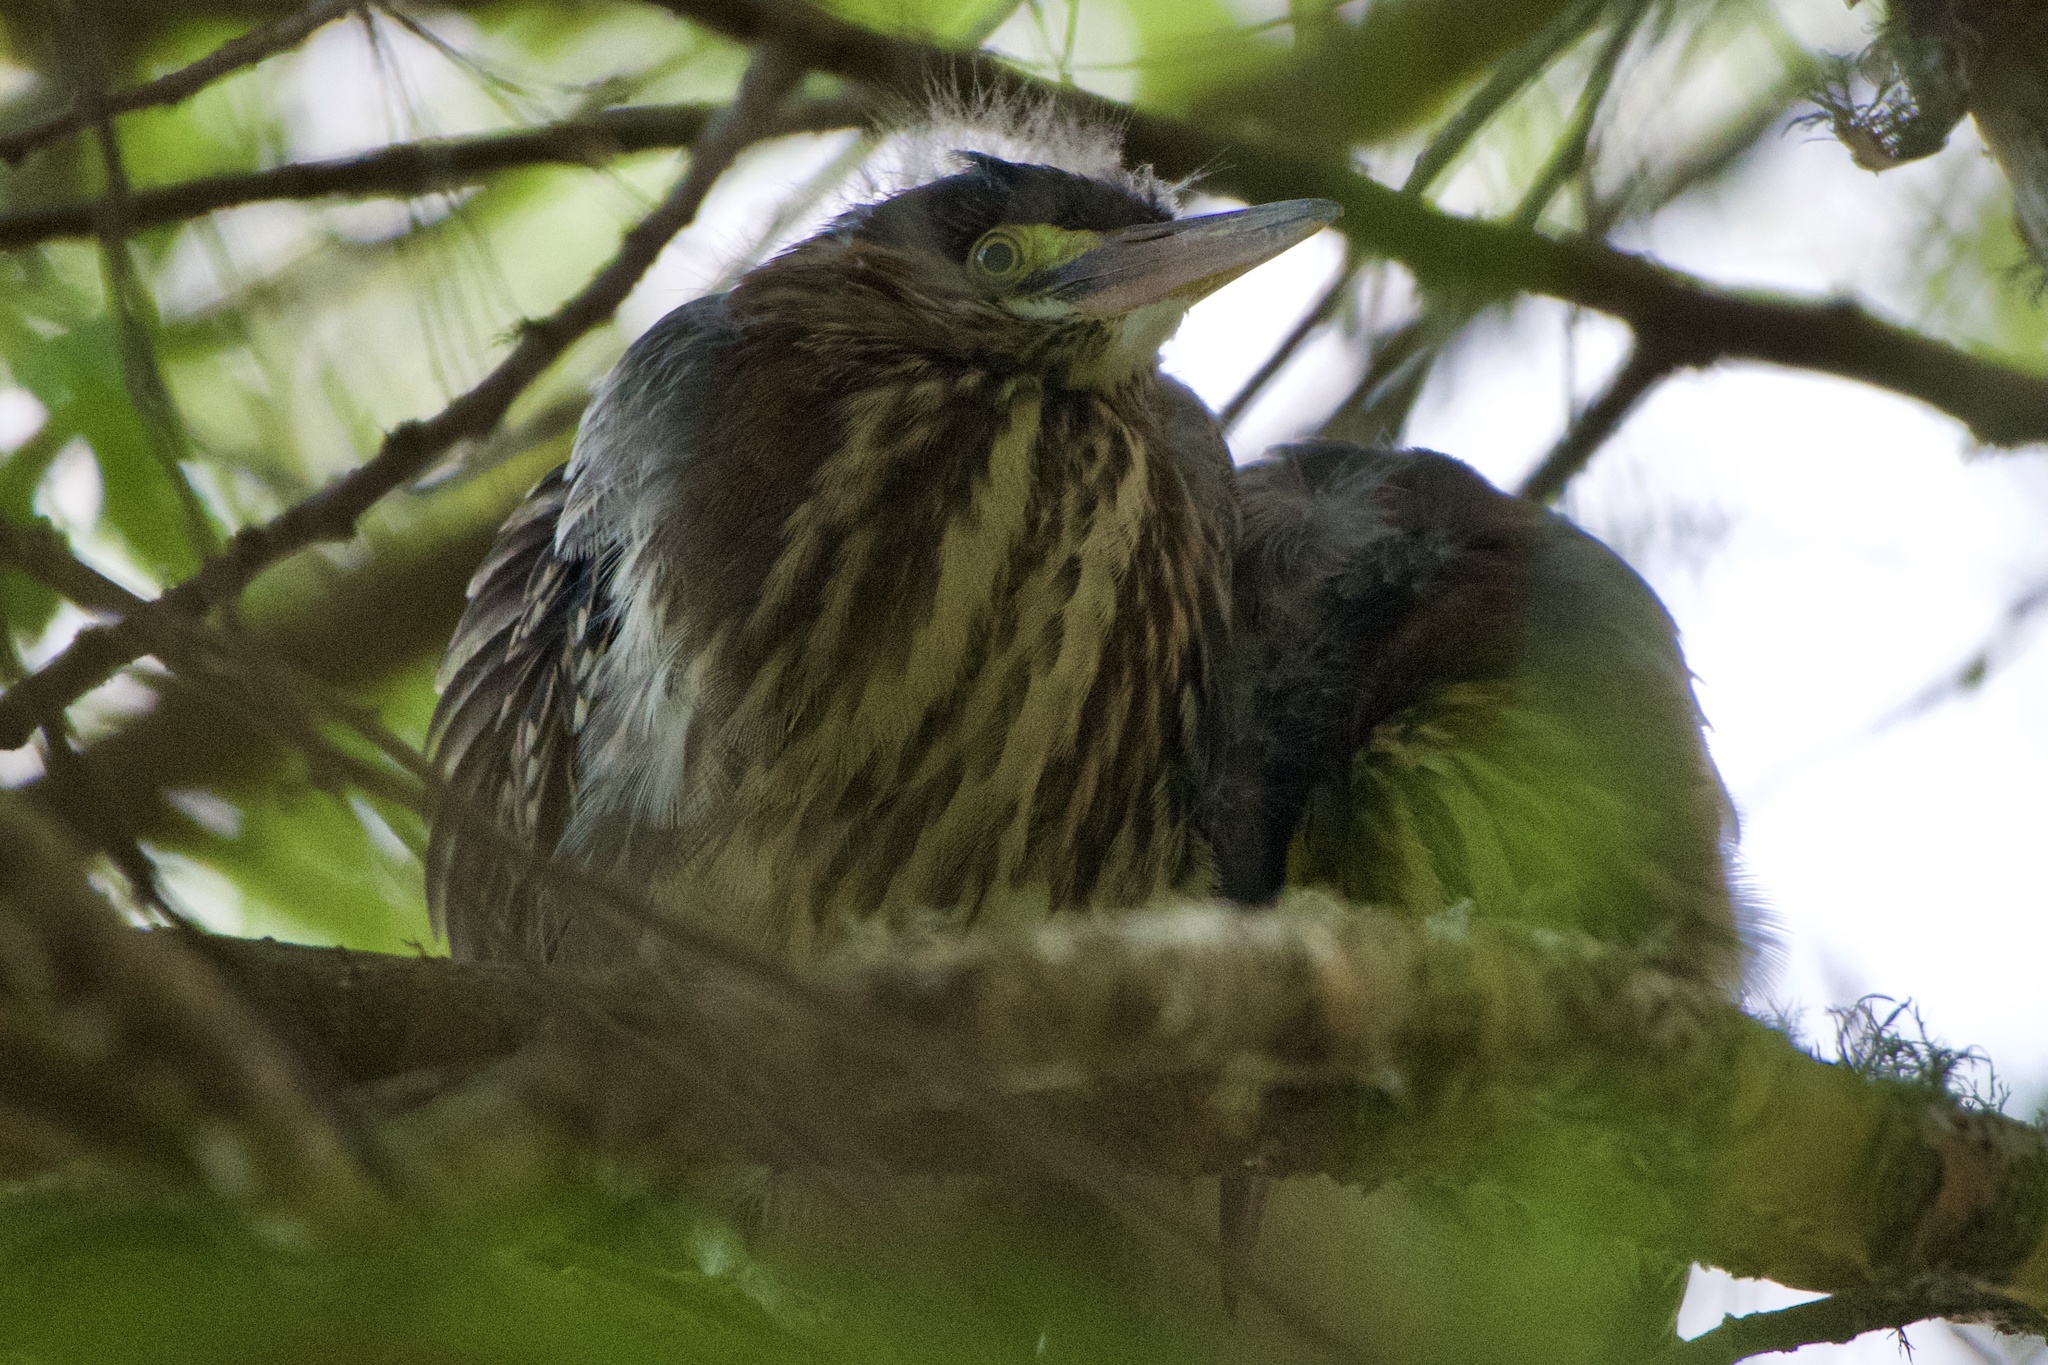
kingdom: Animalia
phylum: Chordata
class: Aves
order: Pelecaniformes
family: Ardeidae
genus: Butorides
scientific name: Butorides virescens
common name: Green heron
